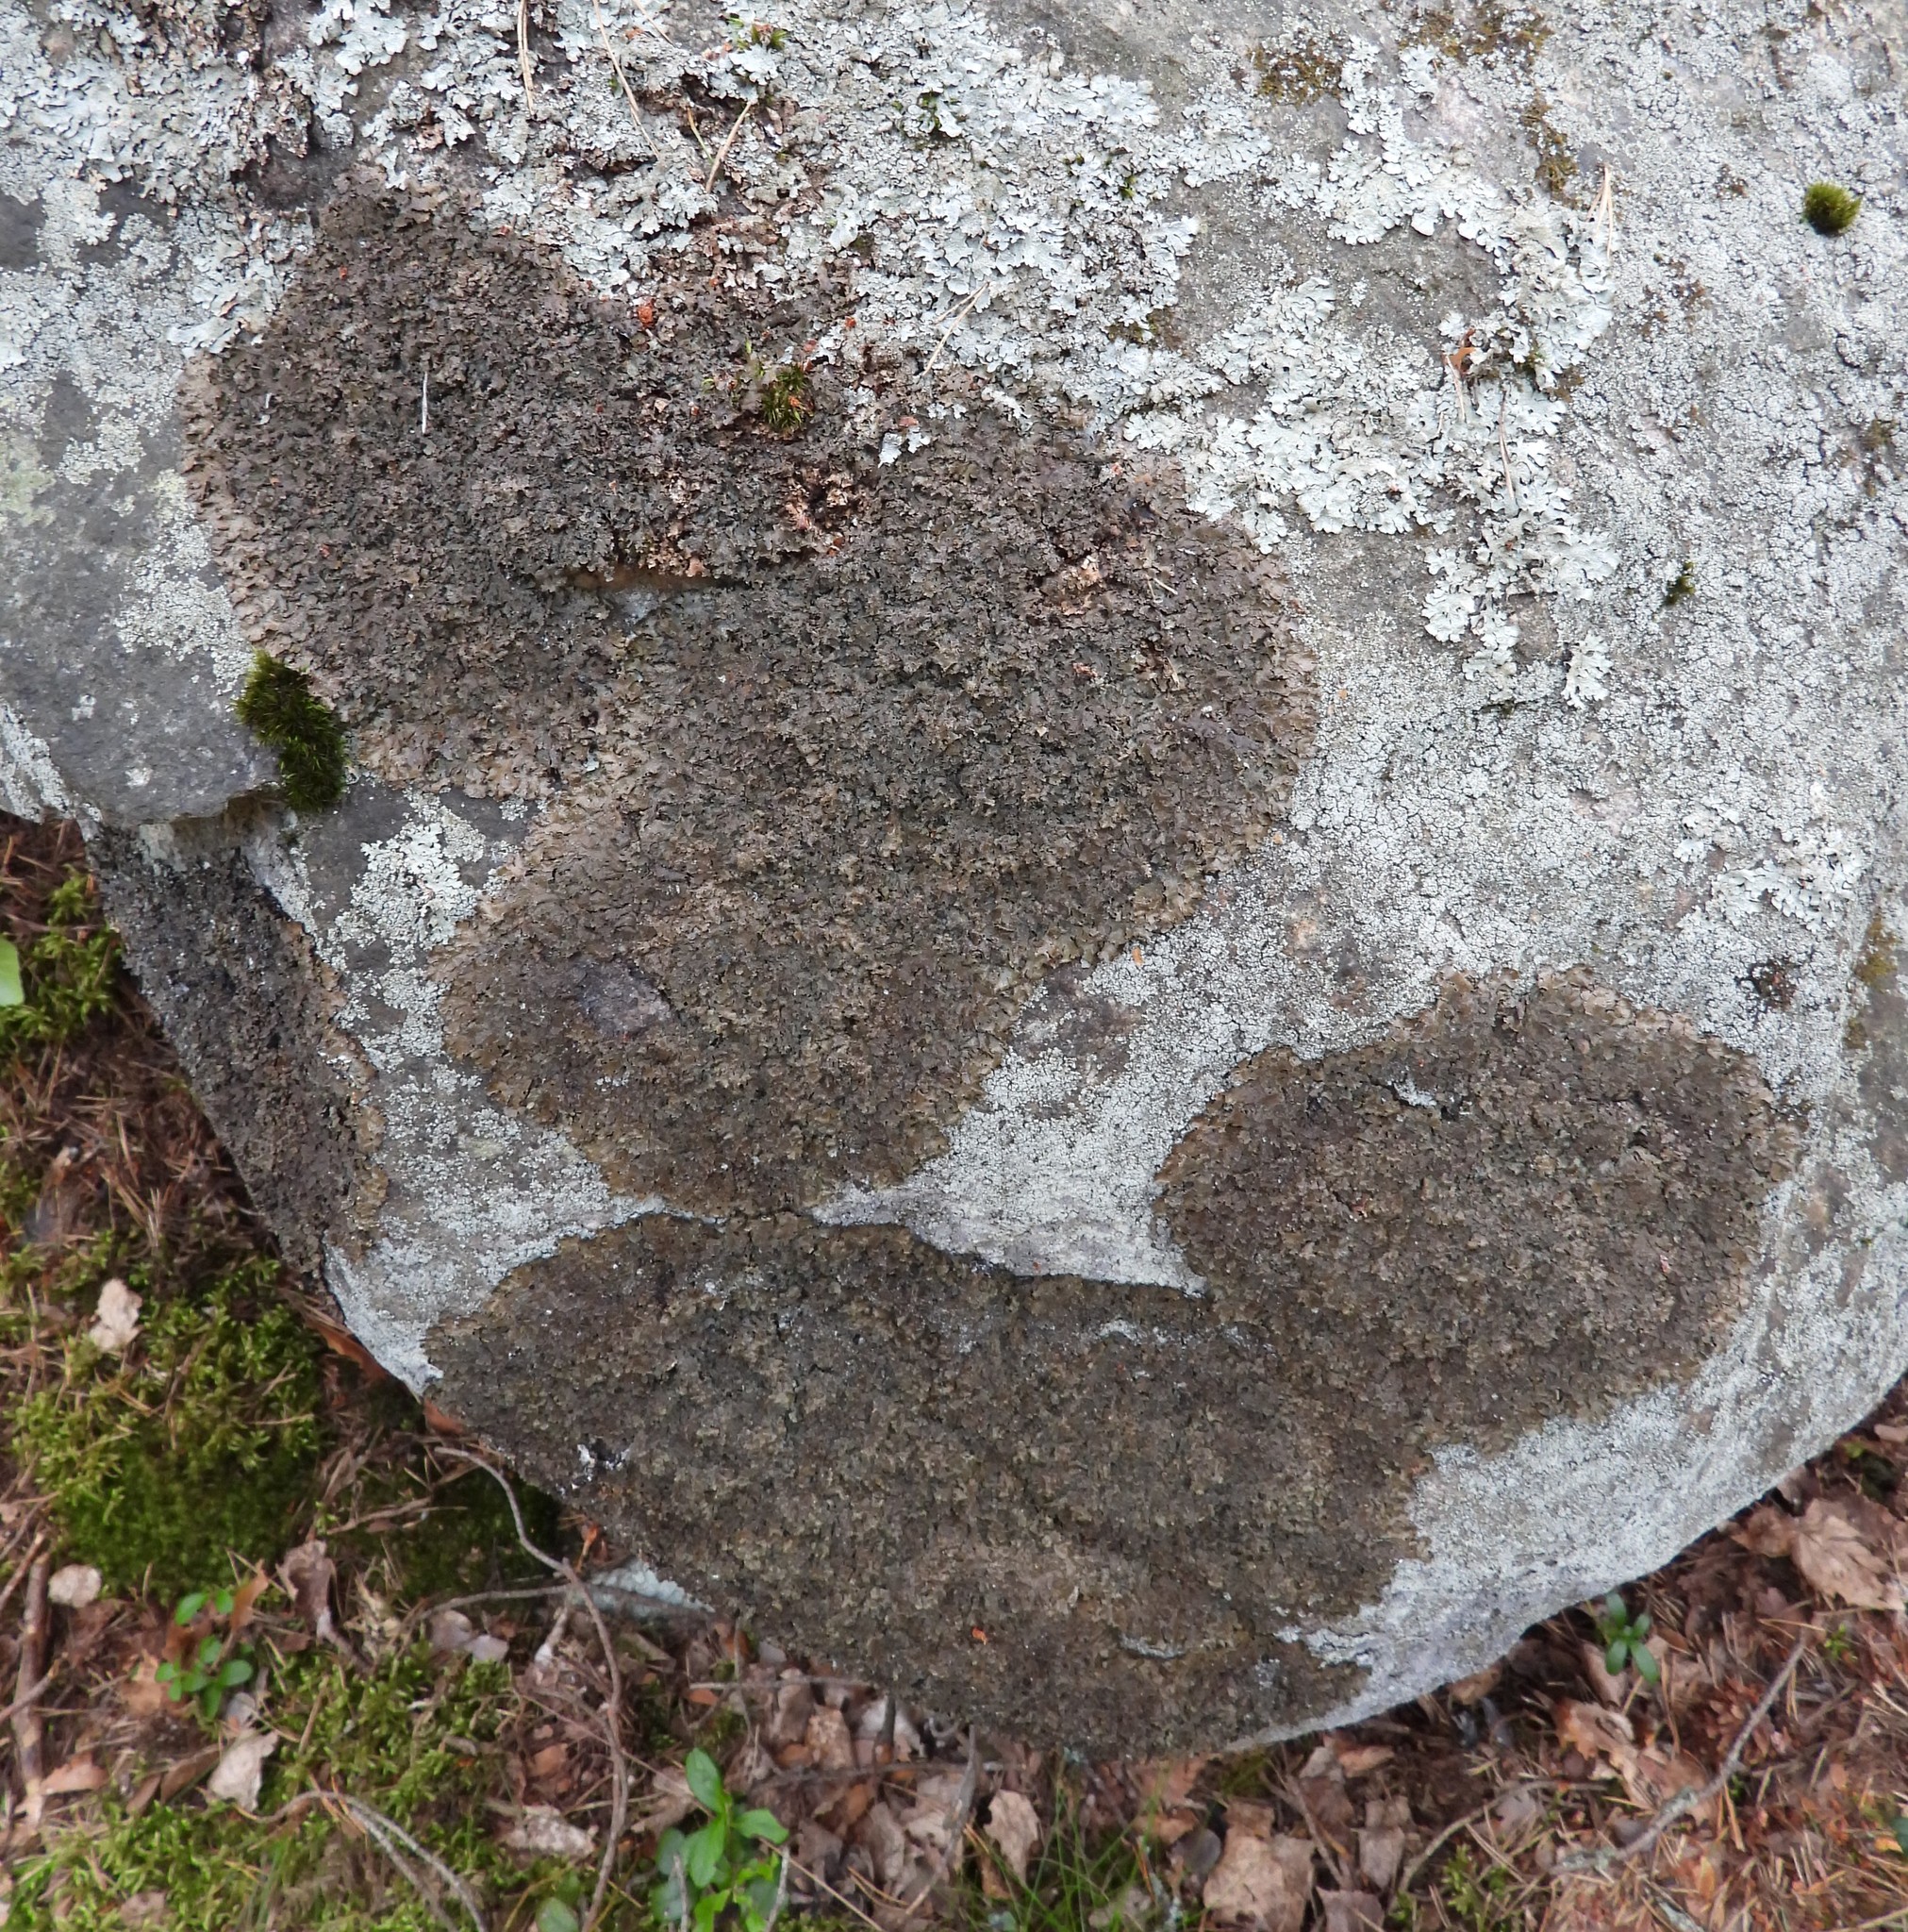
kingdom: Fungi
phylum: Ascomycota
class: Lecanoromycetes
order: Lecanorales
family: Parmeliaceae
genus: Parmelia
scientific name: Parmelia omphalodes
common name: Smoky crottle
